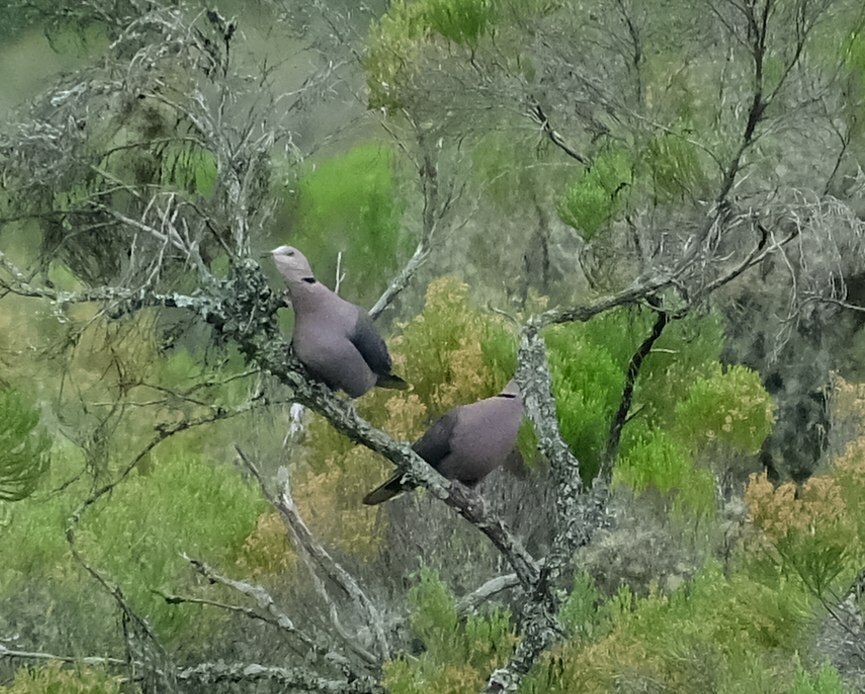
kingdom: Animalia
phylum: Chordata
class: Aves
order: Columbiformes
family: Columbidae
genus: Streptopelia
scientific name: Streptopelia semitorquata
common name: Red-eyed dove
